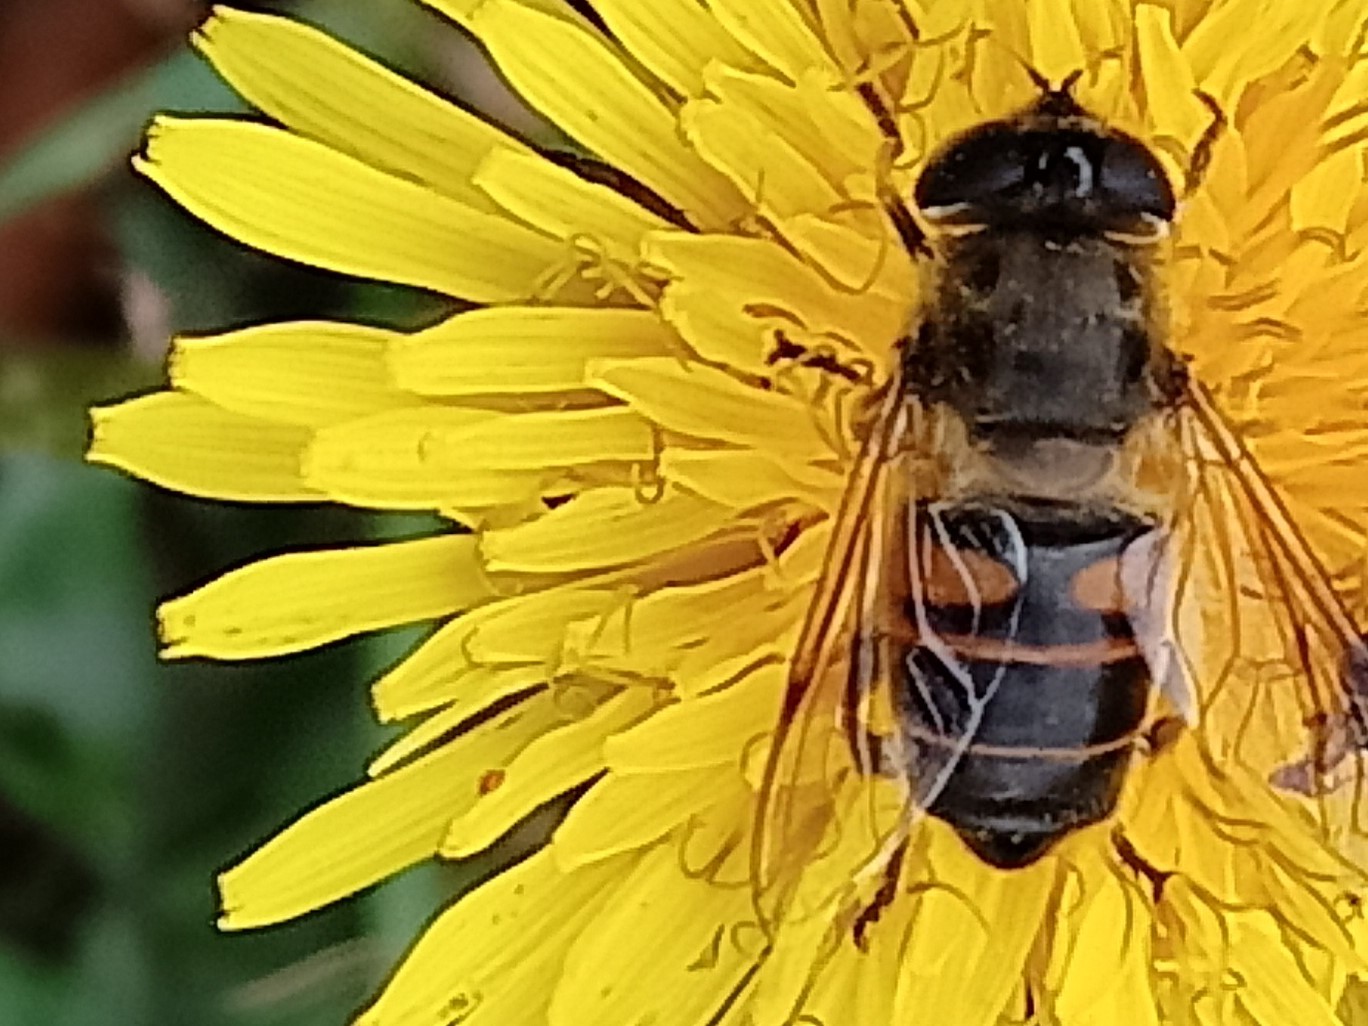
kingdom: Animalia
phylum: Arthropoda
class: Insecta
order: Diptera
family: Syrphidae
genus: Eristalis
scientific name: Eristalis tenax
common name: Drone fly
